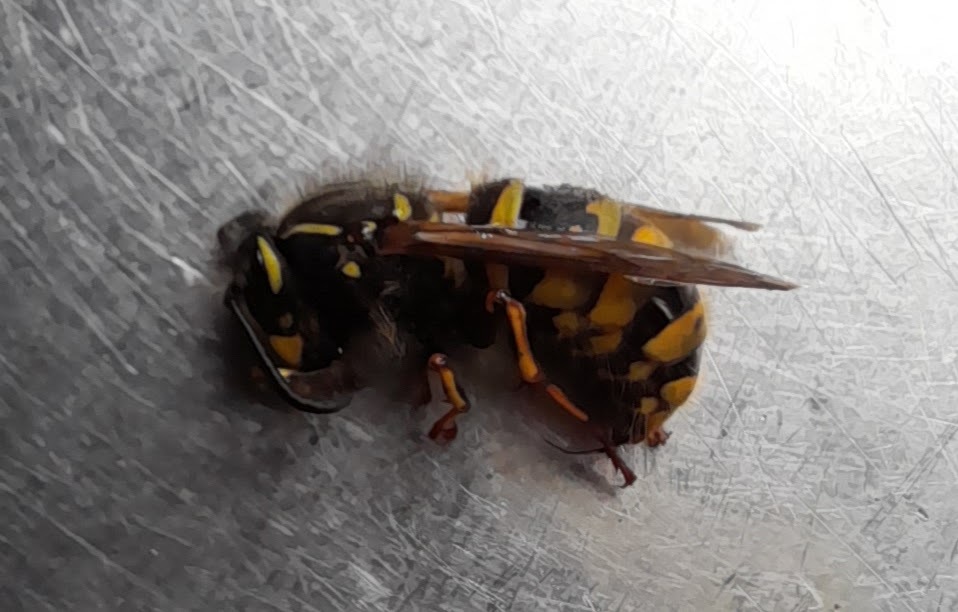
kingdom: Animalia
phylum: Arthropoda
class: Insecta
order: Hymenoptera
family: Vespidae
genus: Vespula
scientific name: Vespula vulgaris
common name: Common wasp
